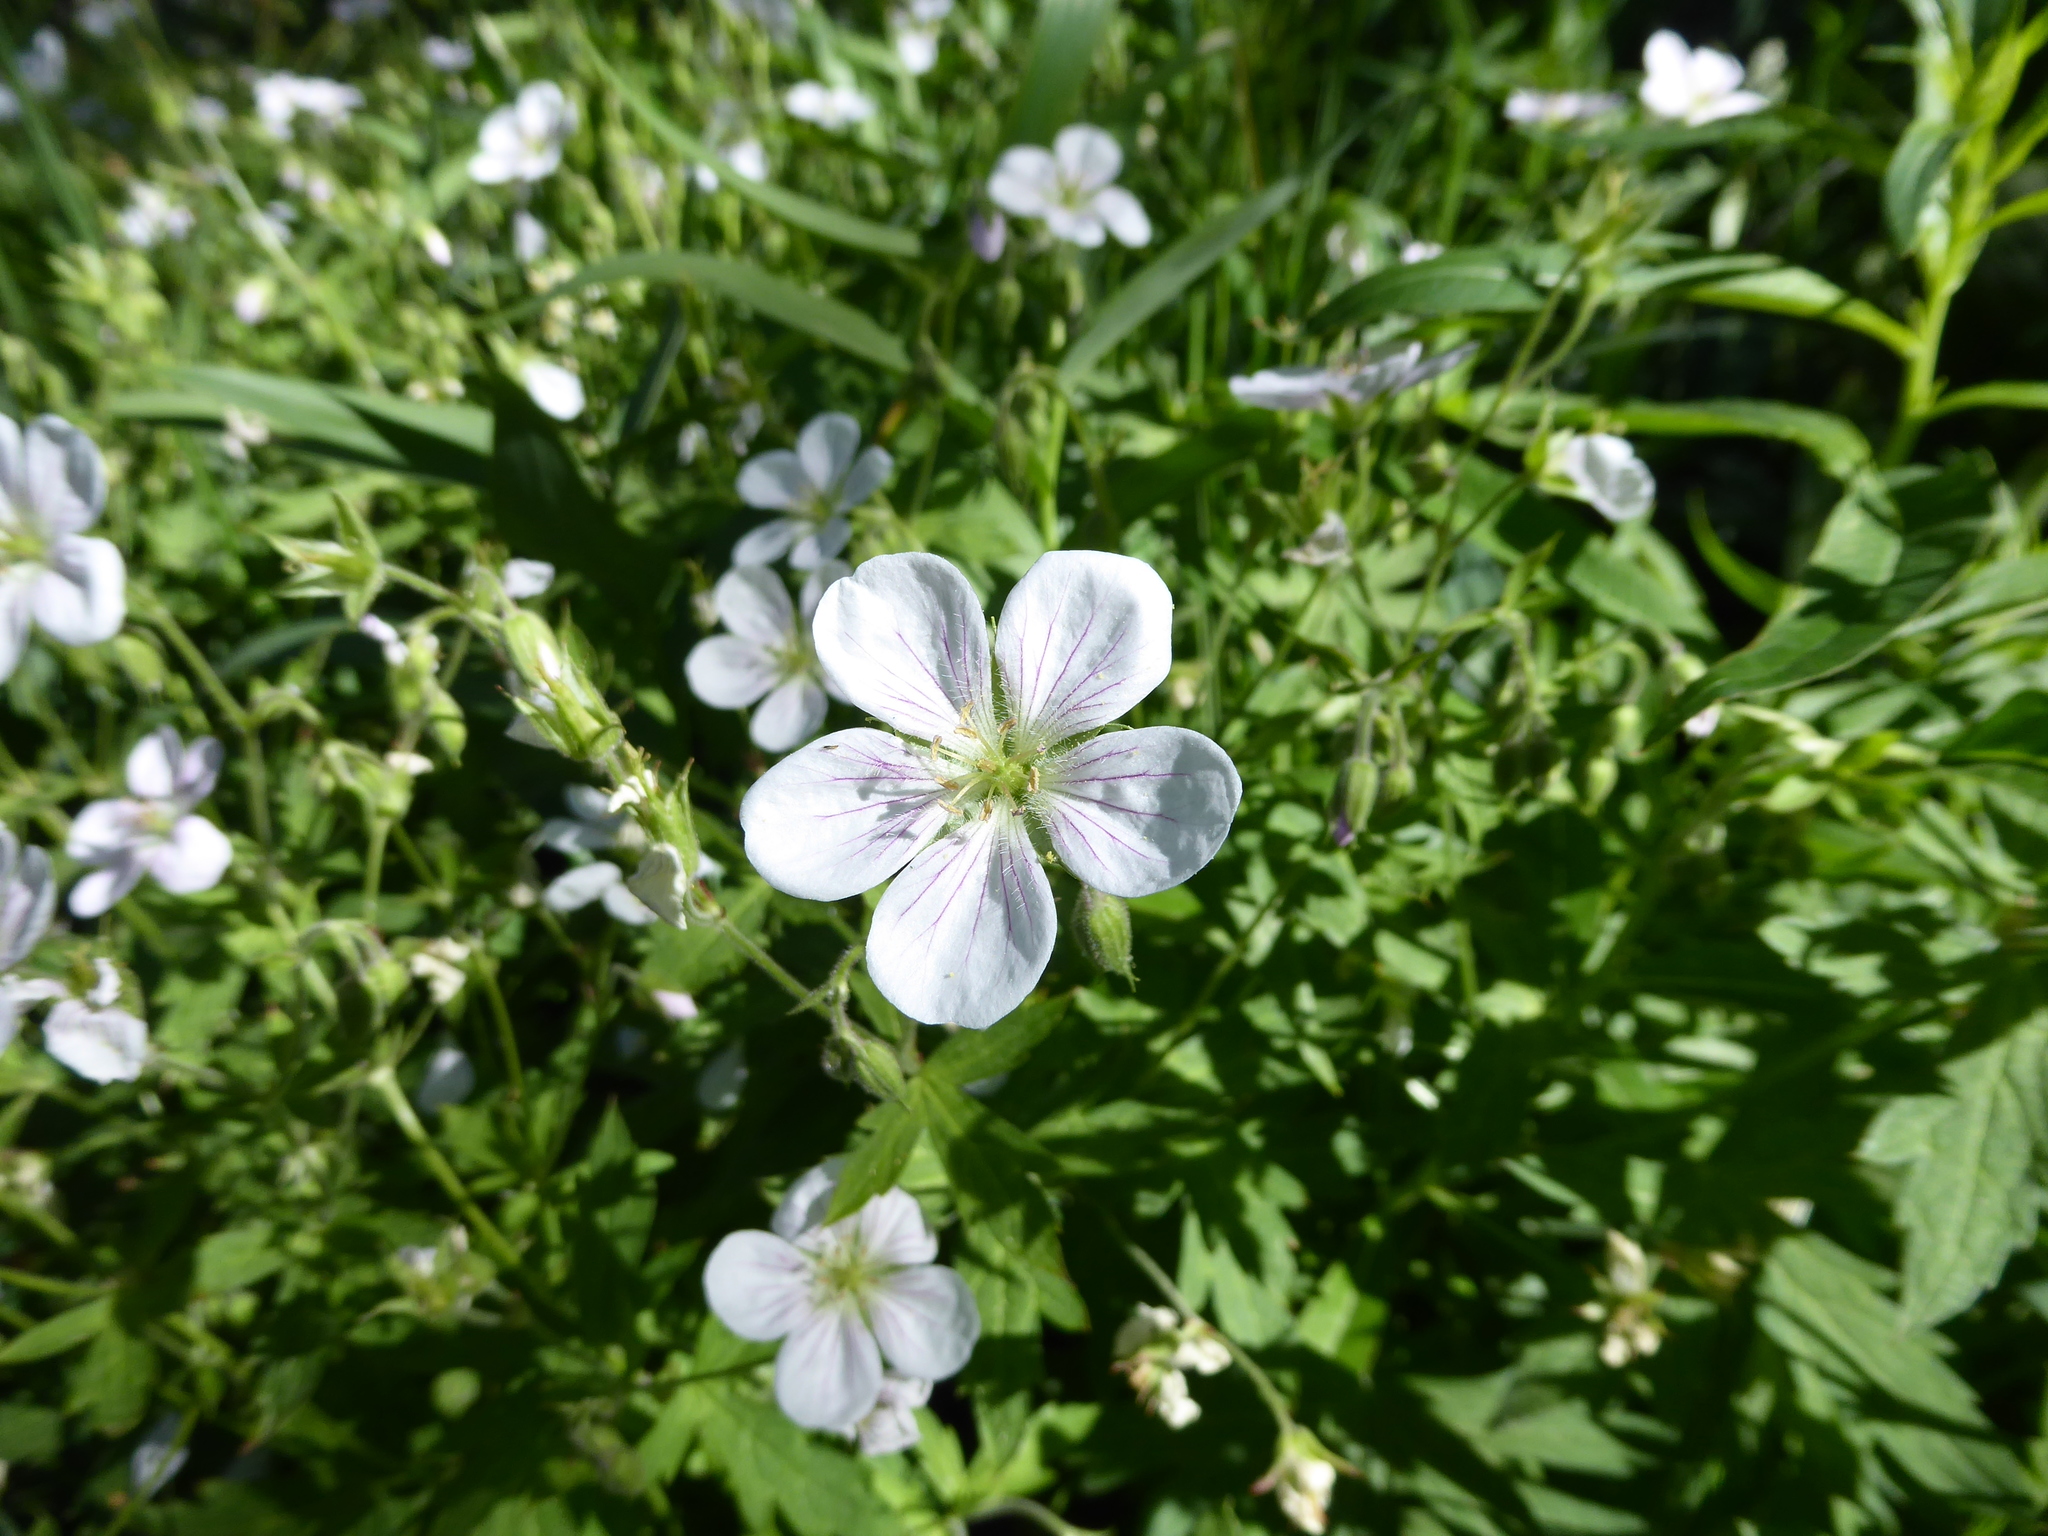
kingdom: Plantae
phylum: Tracheophyta
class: Magnoliopsida
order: Geraniales
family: Geraniaceae
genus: Geranium
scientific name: Geranium richardsonii
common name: Richardson's crane's-bill
